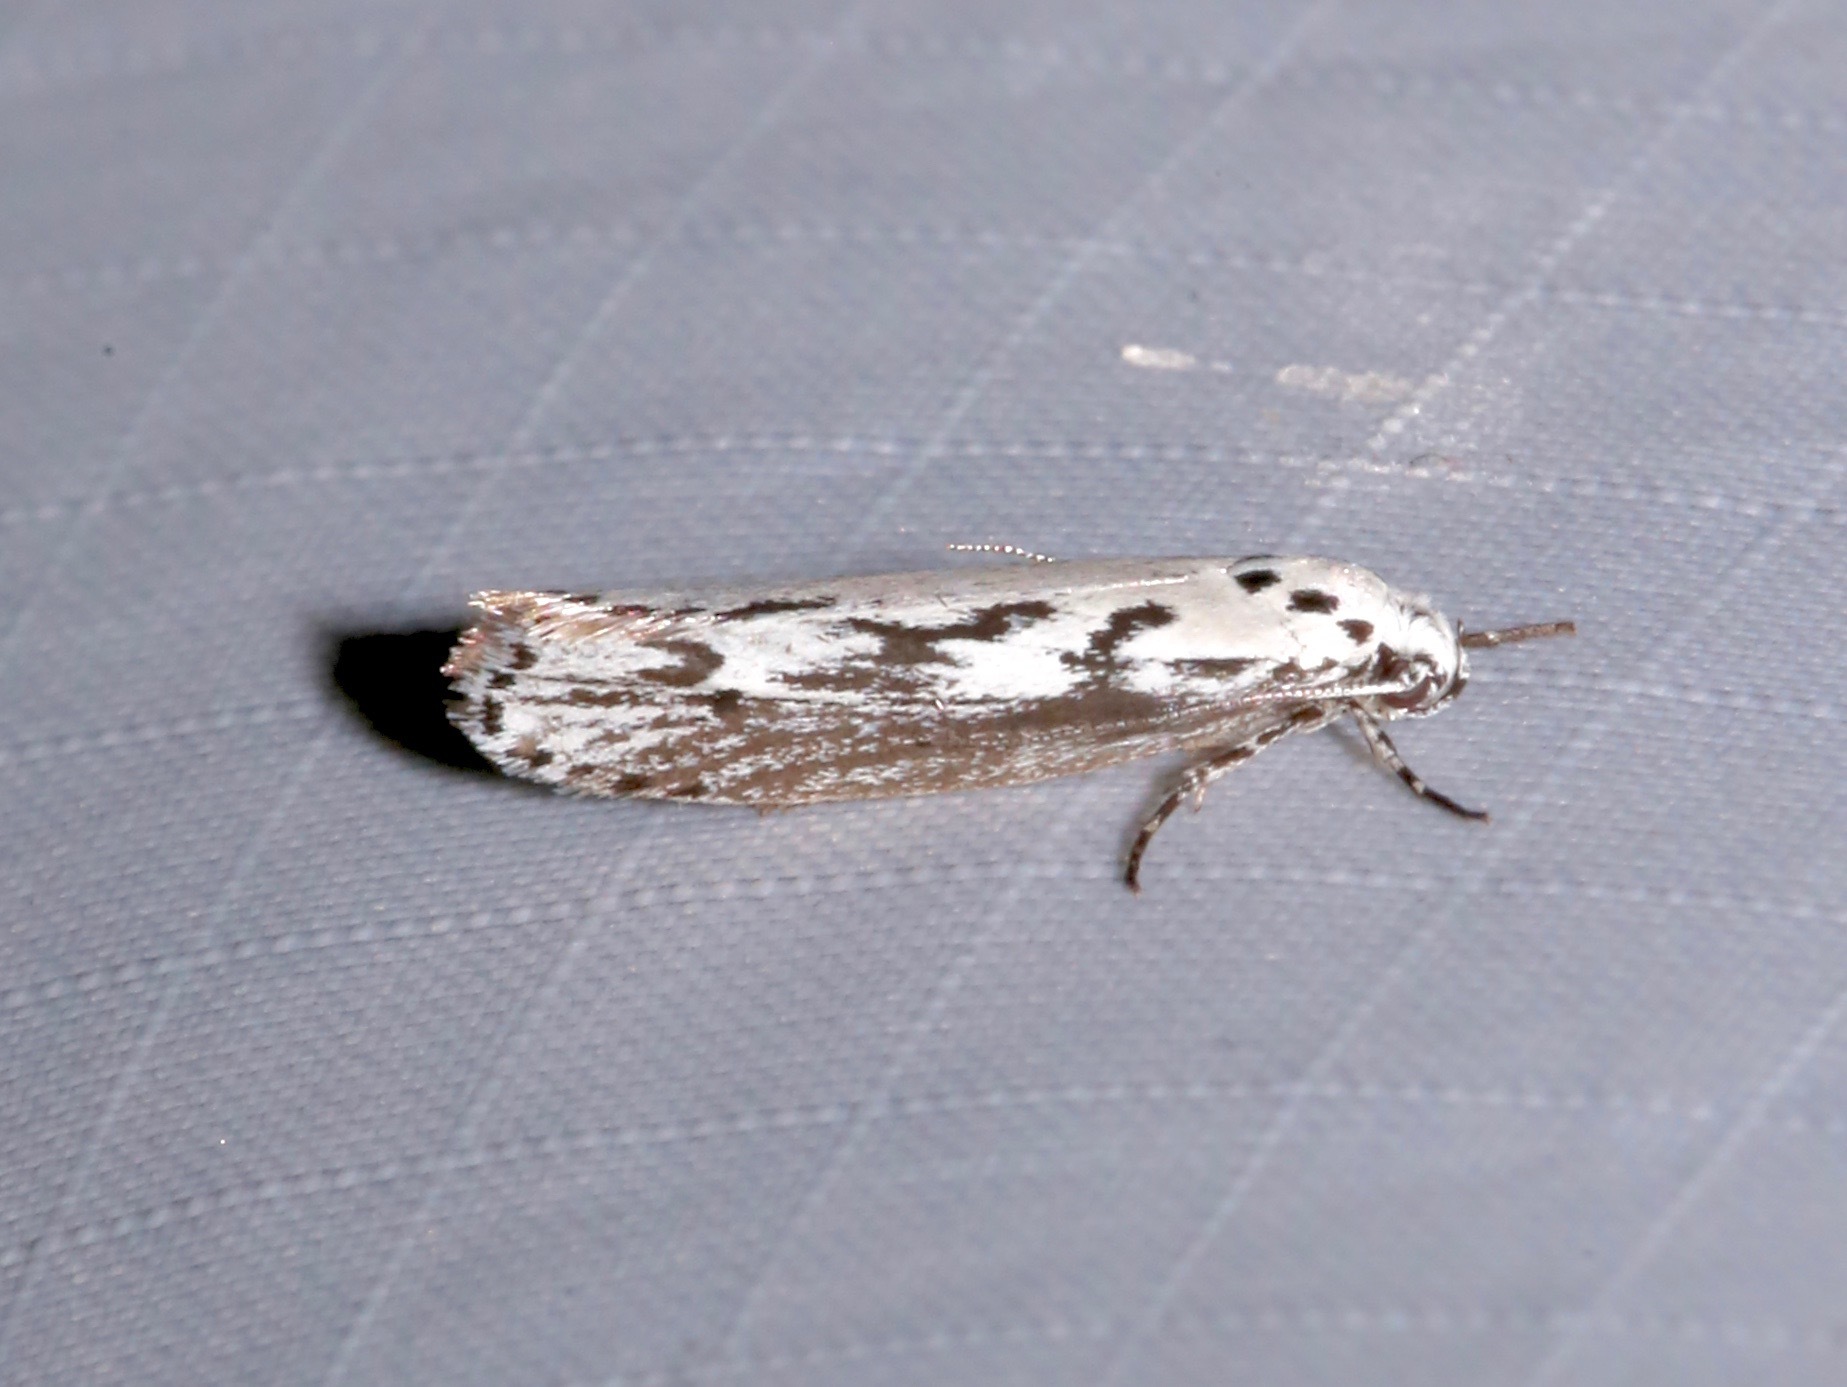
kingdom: Animalia
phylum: Arthropoda
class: Insecta
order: Lepidoptera
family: Ethmiidae
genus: Ethmia
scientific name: Ethmia semitenebrella
